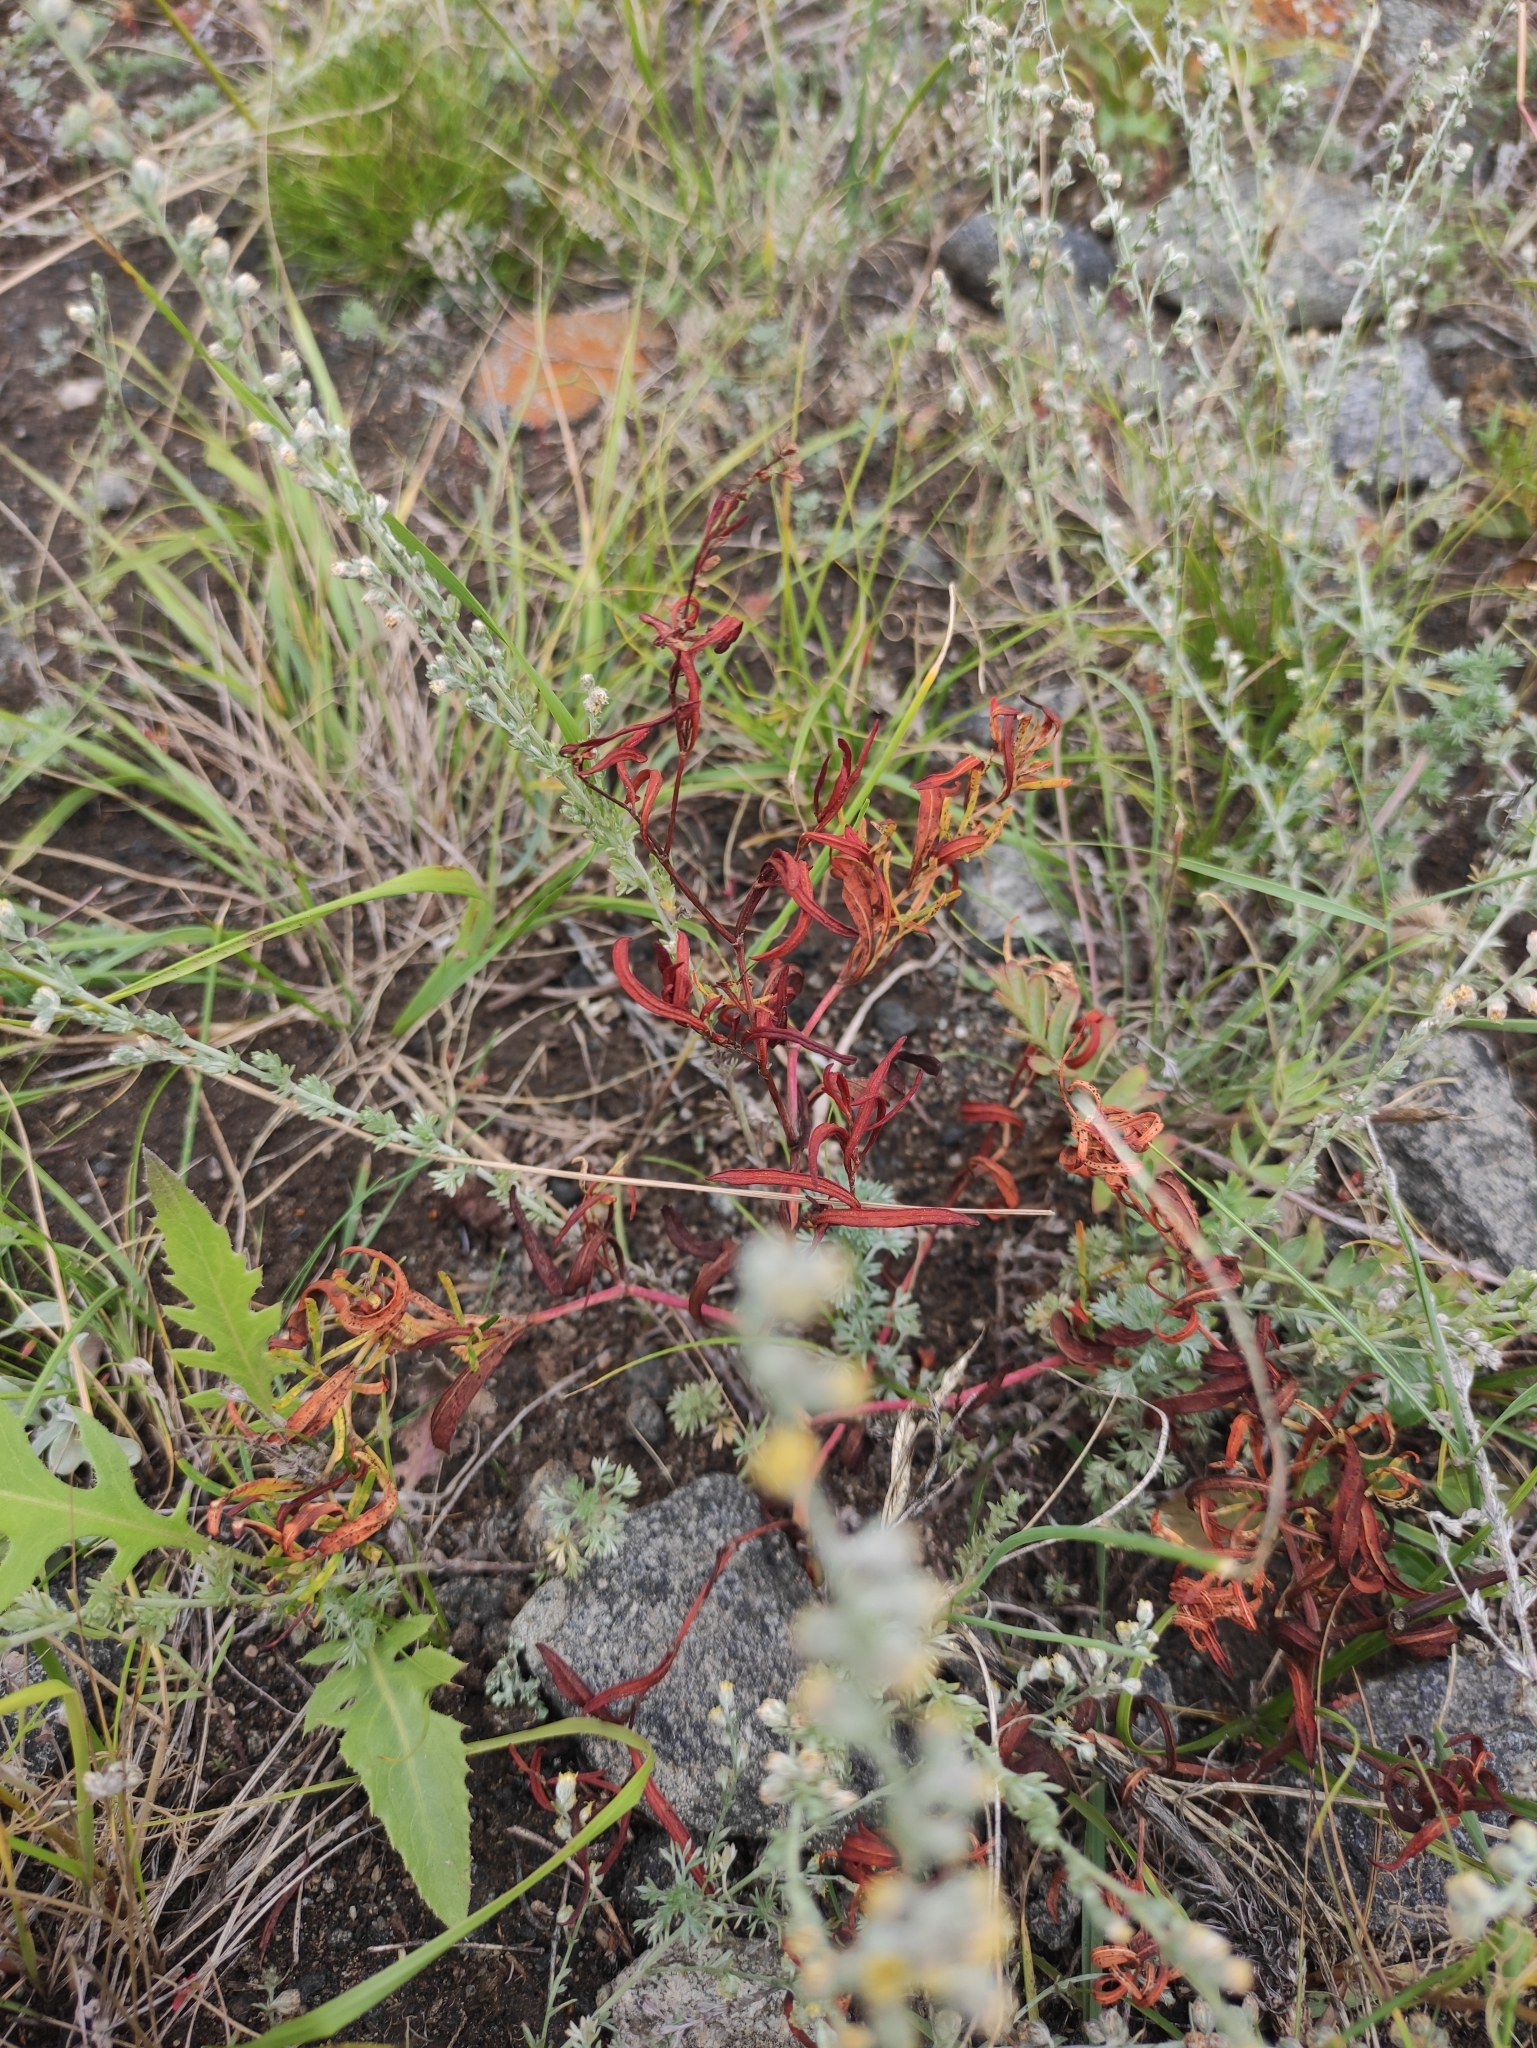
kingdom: Plantae
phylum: Tracheophyta
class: Magnoliopsida
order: Caryophyllales
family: Polygonaceae
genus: Persicaria
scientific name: Persicaria angustifolia
